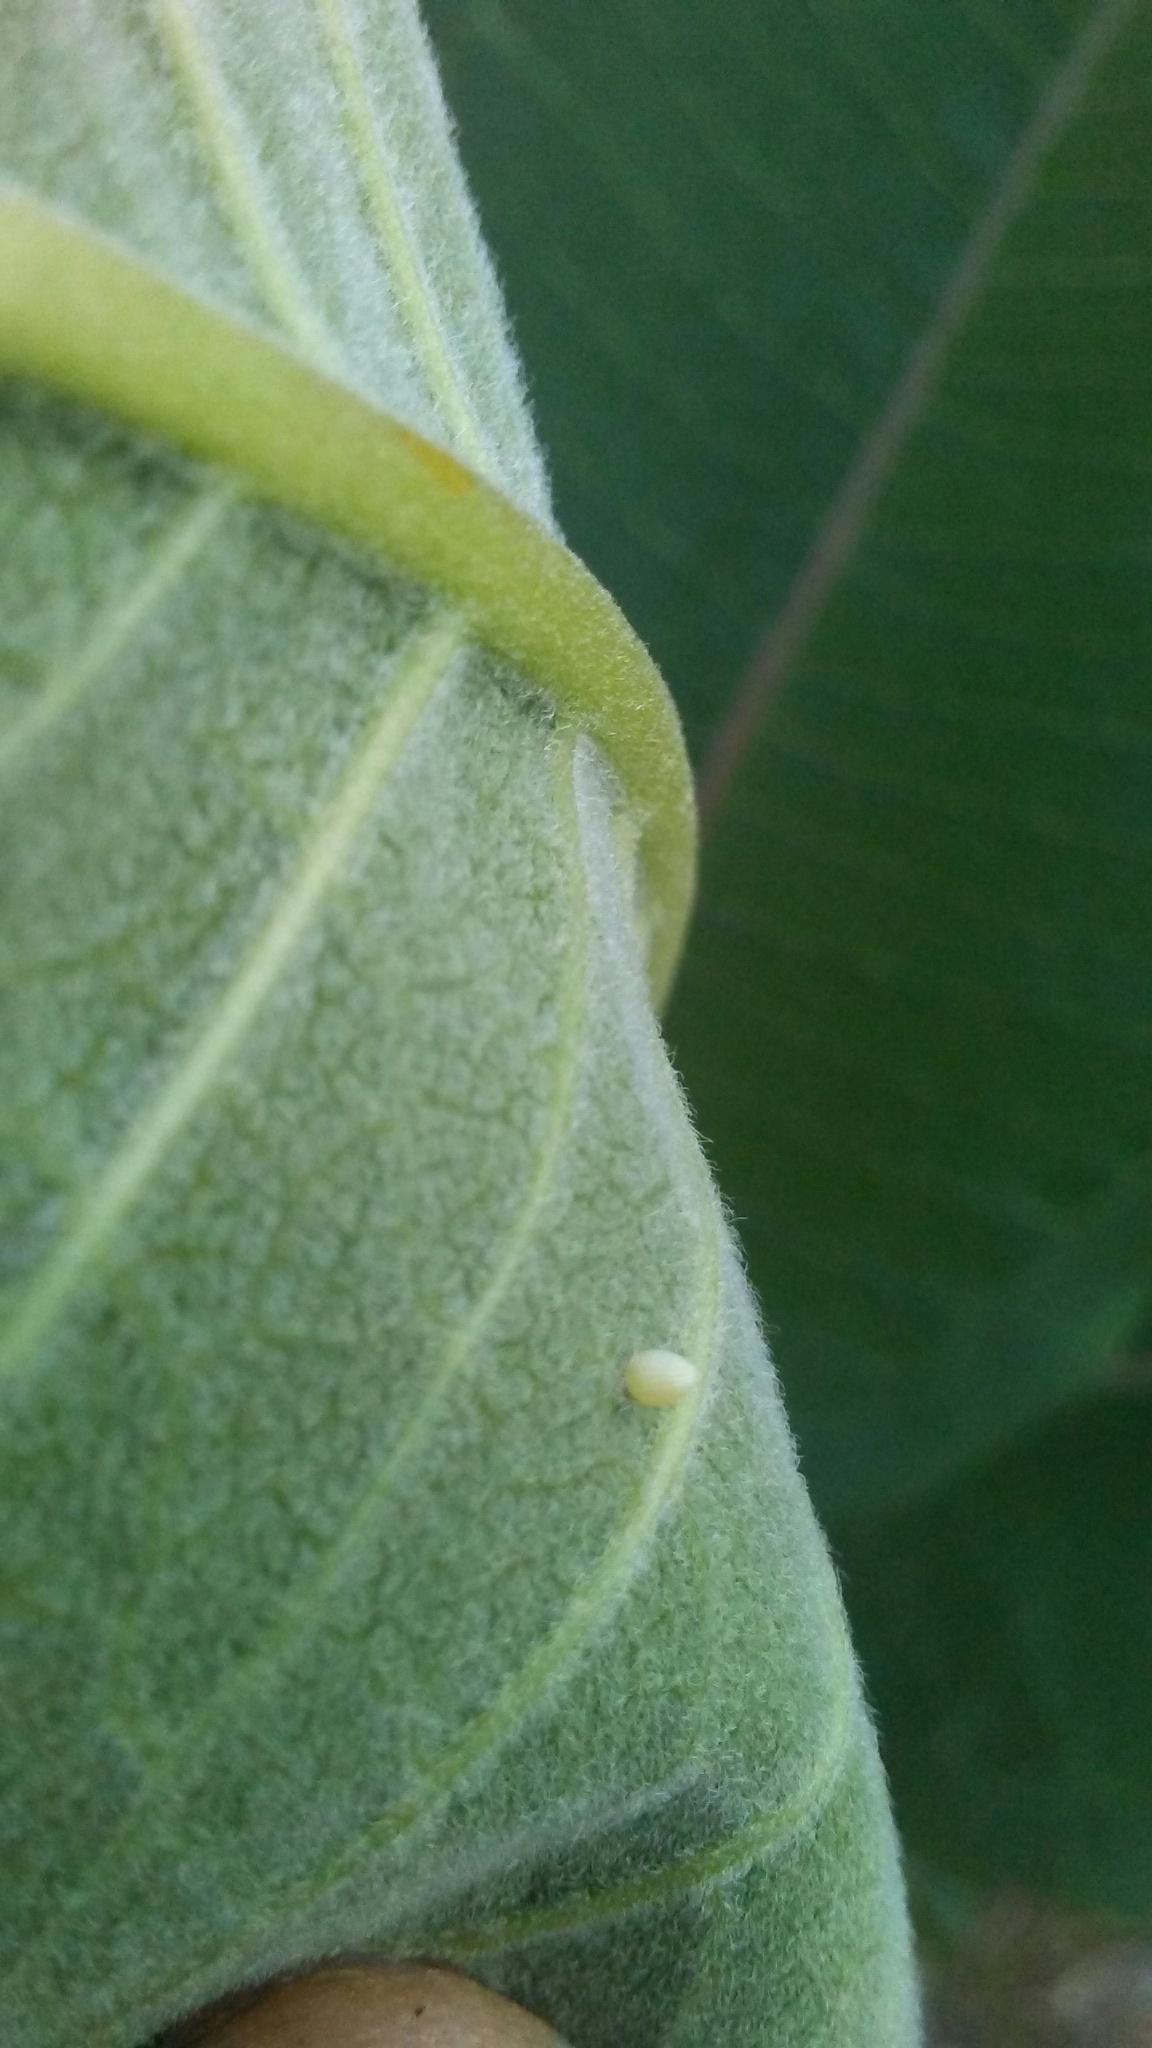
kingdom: Animalia
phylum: Arthropoda
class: Insecta
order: Lepidoptera
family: Nymphalidae
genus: Danaus
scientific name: Danaus plexippus
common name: Monarch
